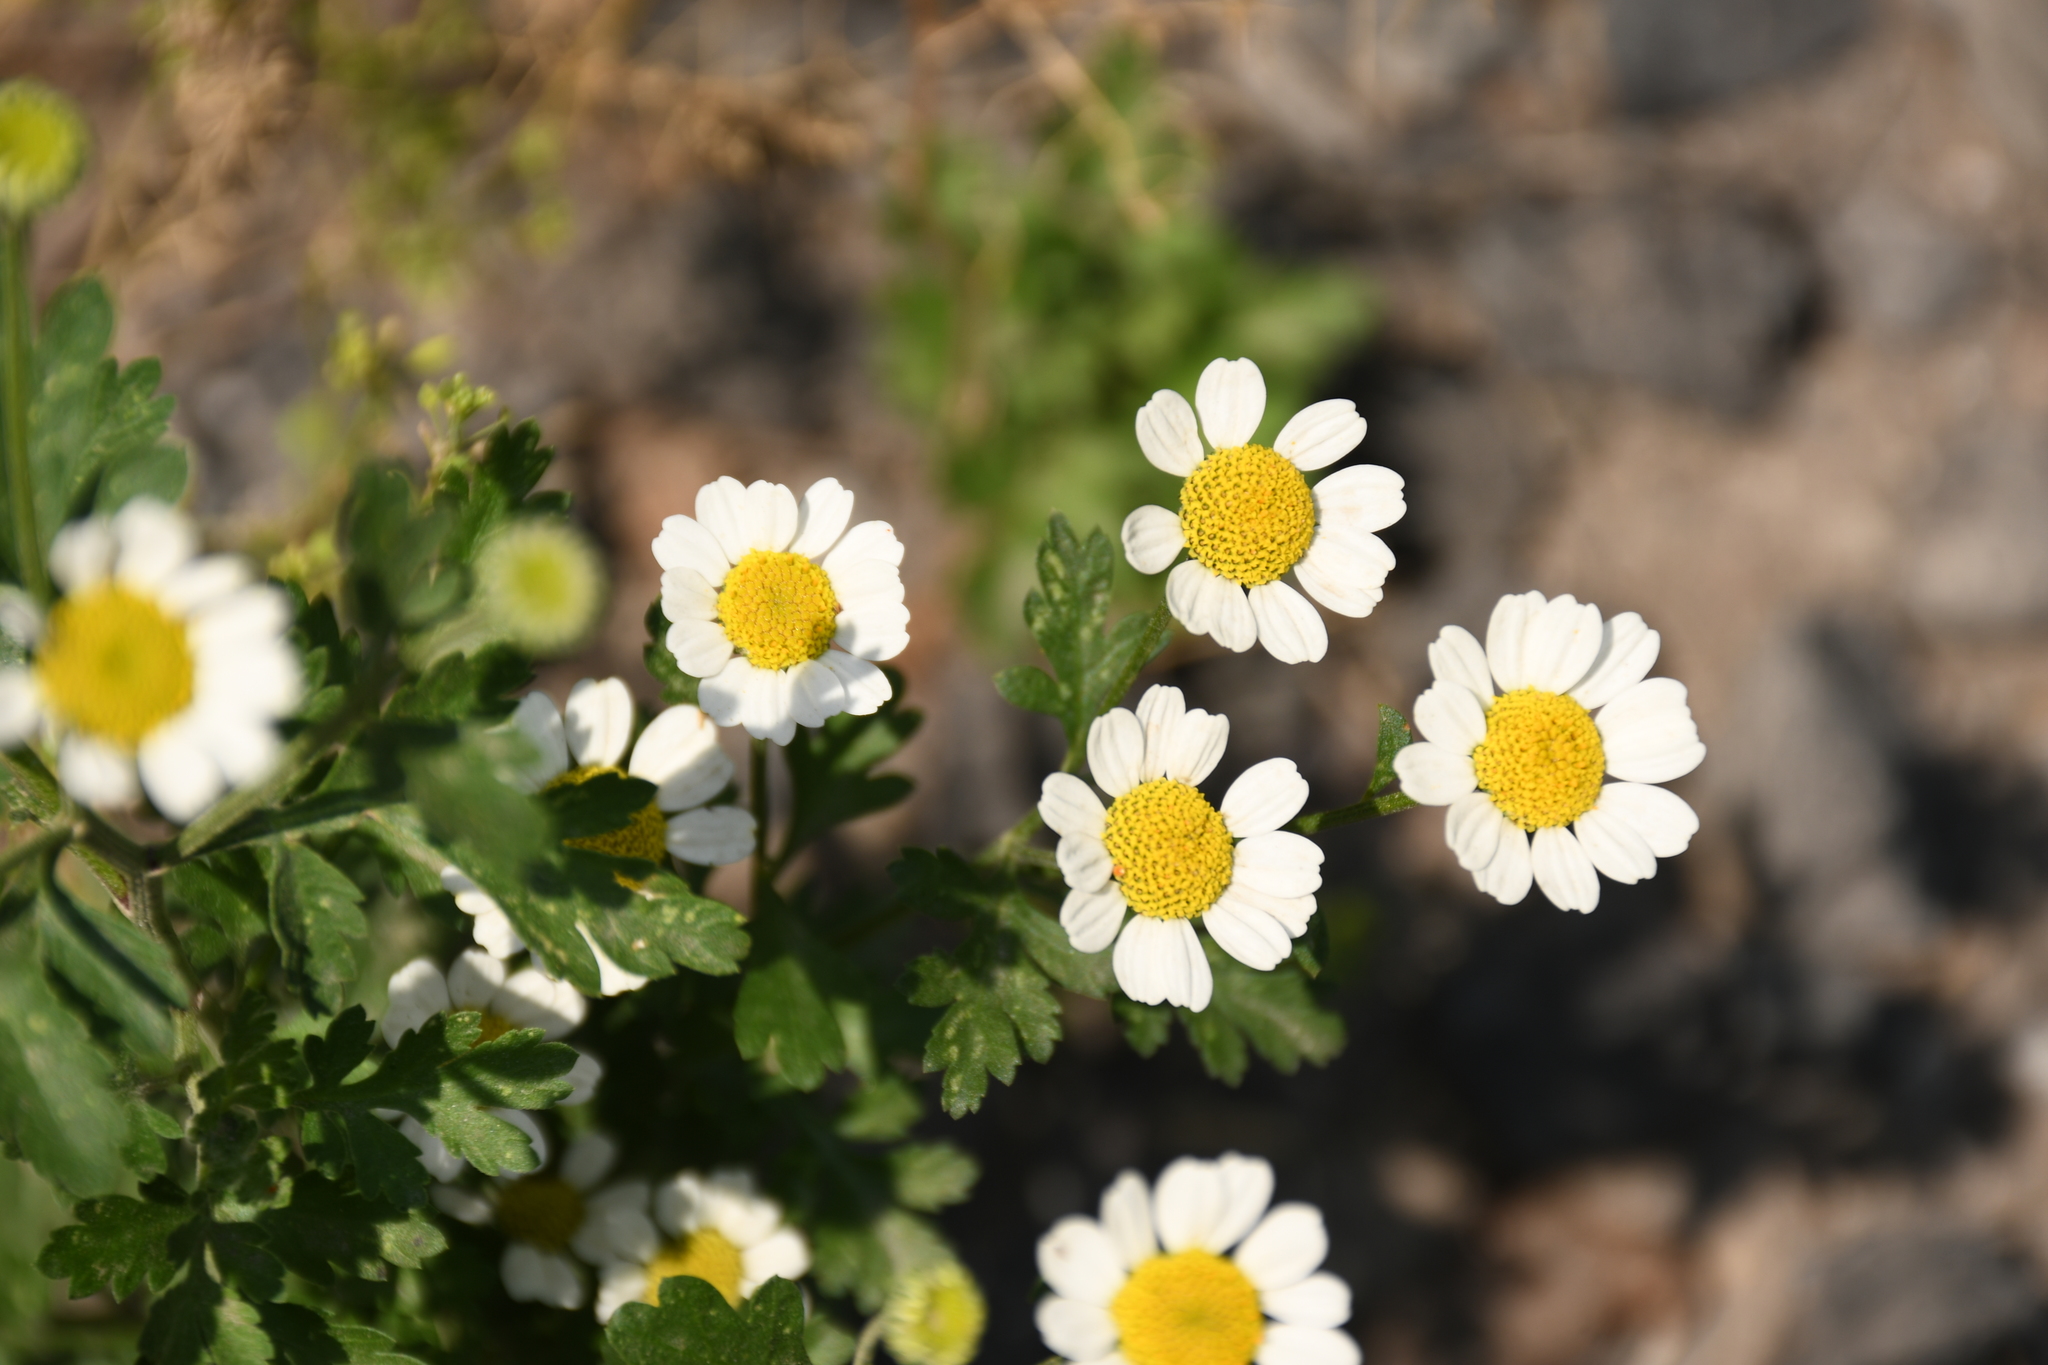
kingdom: Plantae
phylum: Tracheophyta
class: Magnoliopsida
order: Asterales
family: Asteraceae
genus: Tanacetum
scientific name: Tanacetum parthenium
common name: Feverfew
